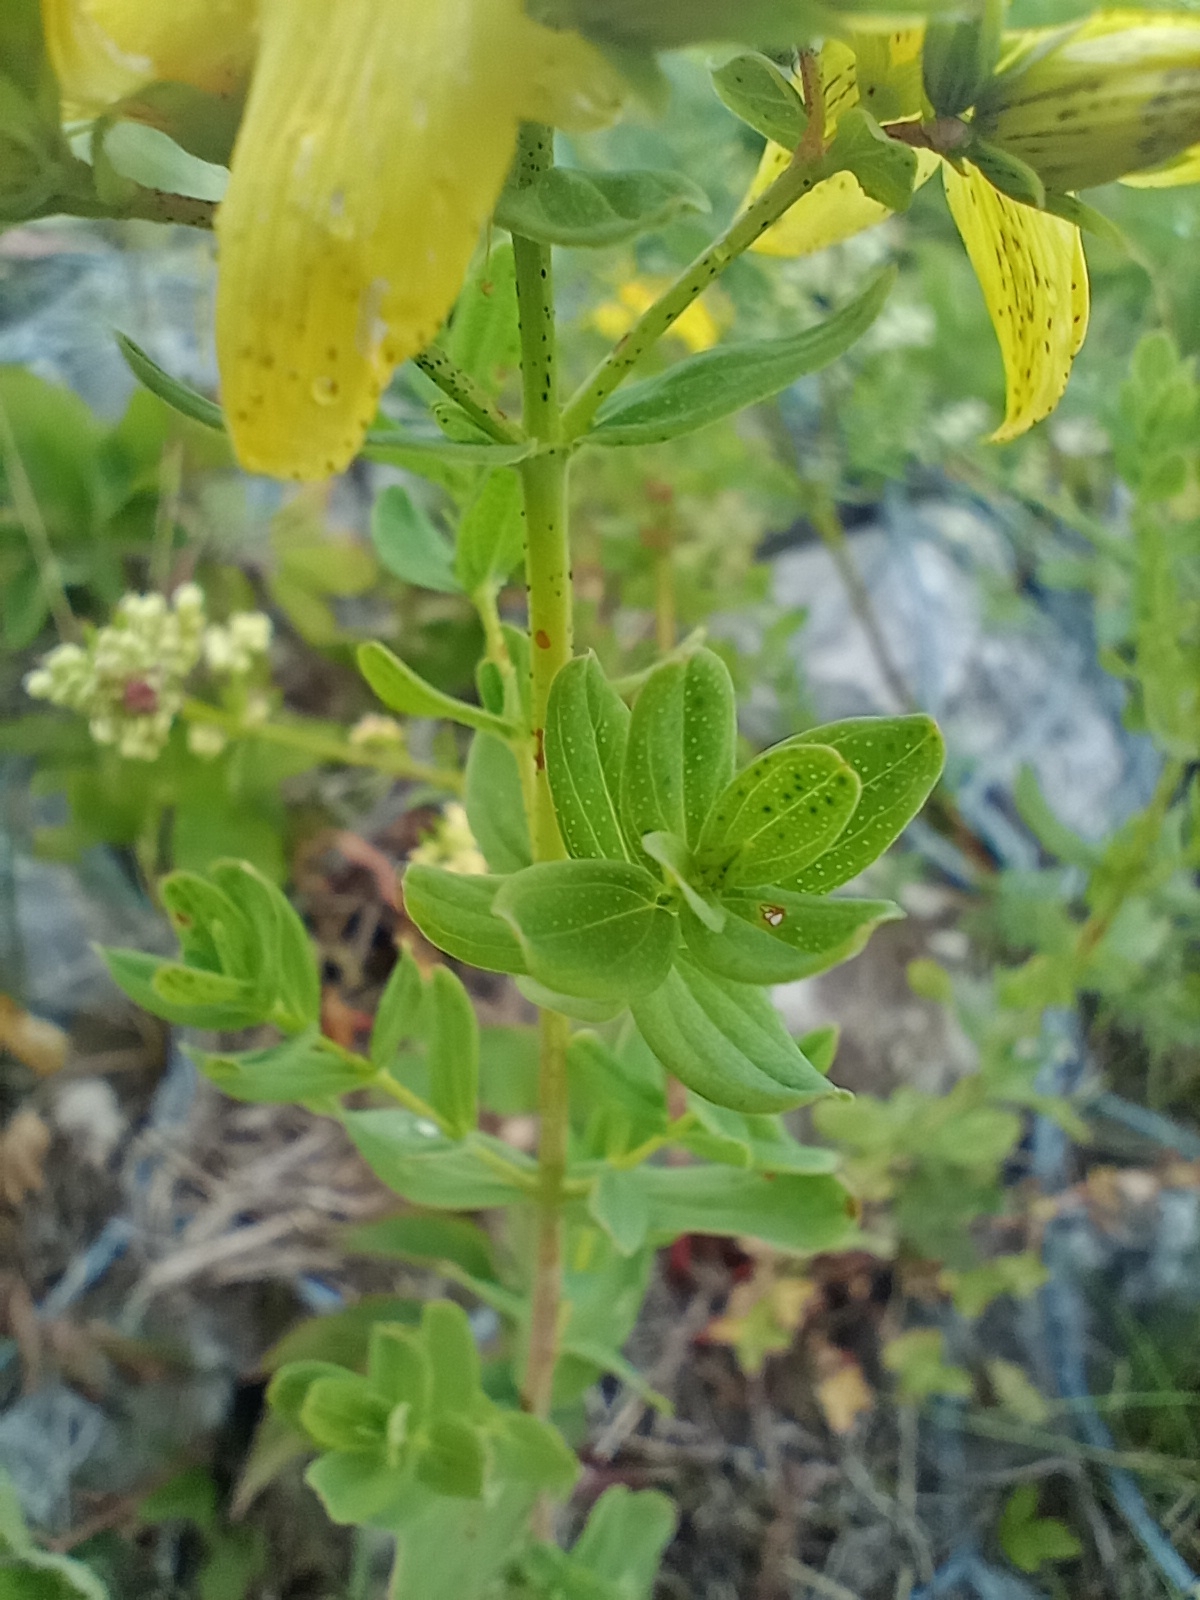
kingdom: Plantae
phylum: Tracheophyta
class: Magnoliopsida
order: Malpighiales
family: Hypericaceae
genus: Hypericum
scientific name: Hypericum perforatum
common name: Common st. johnswort
